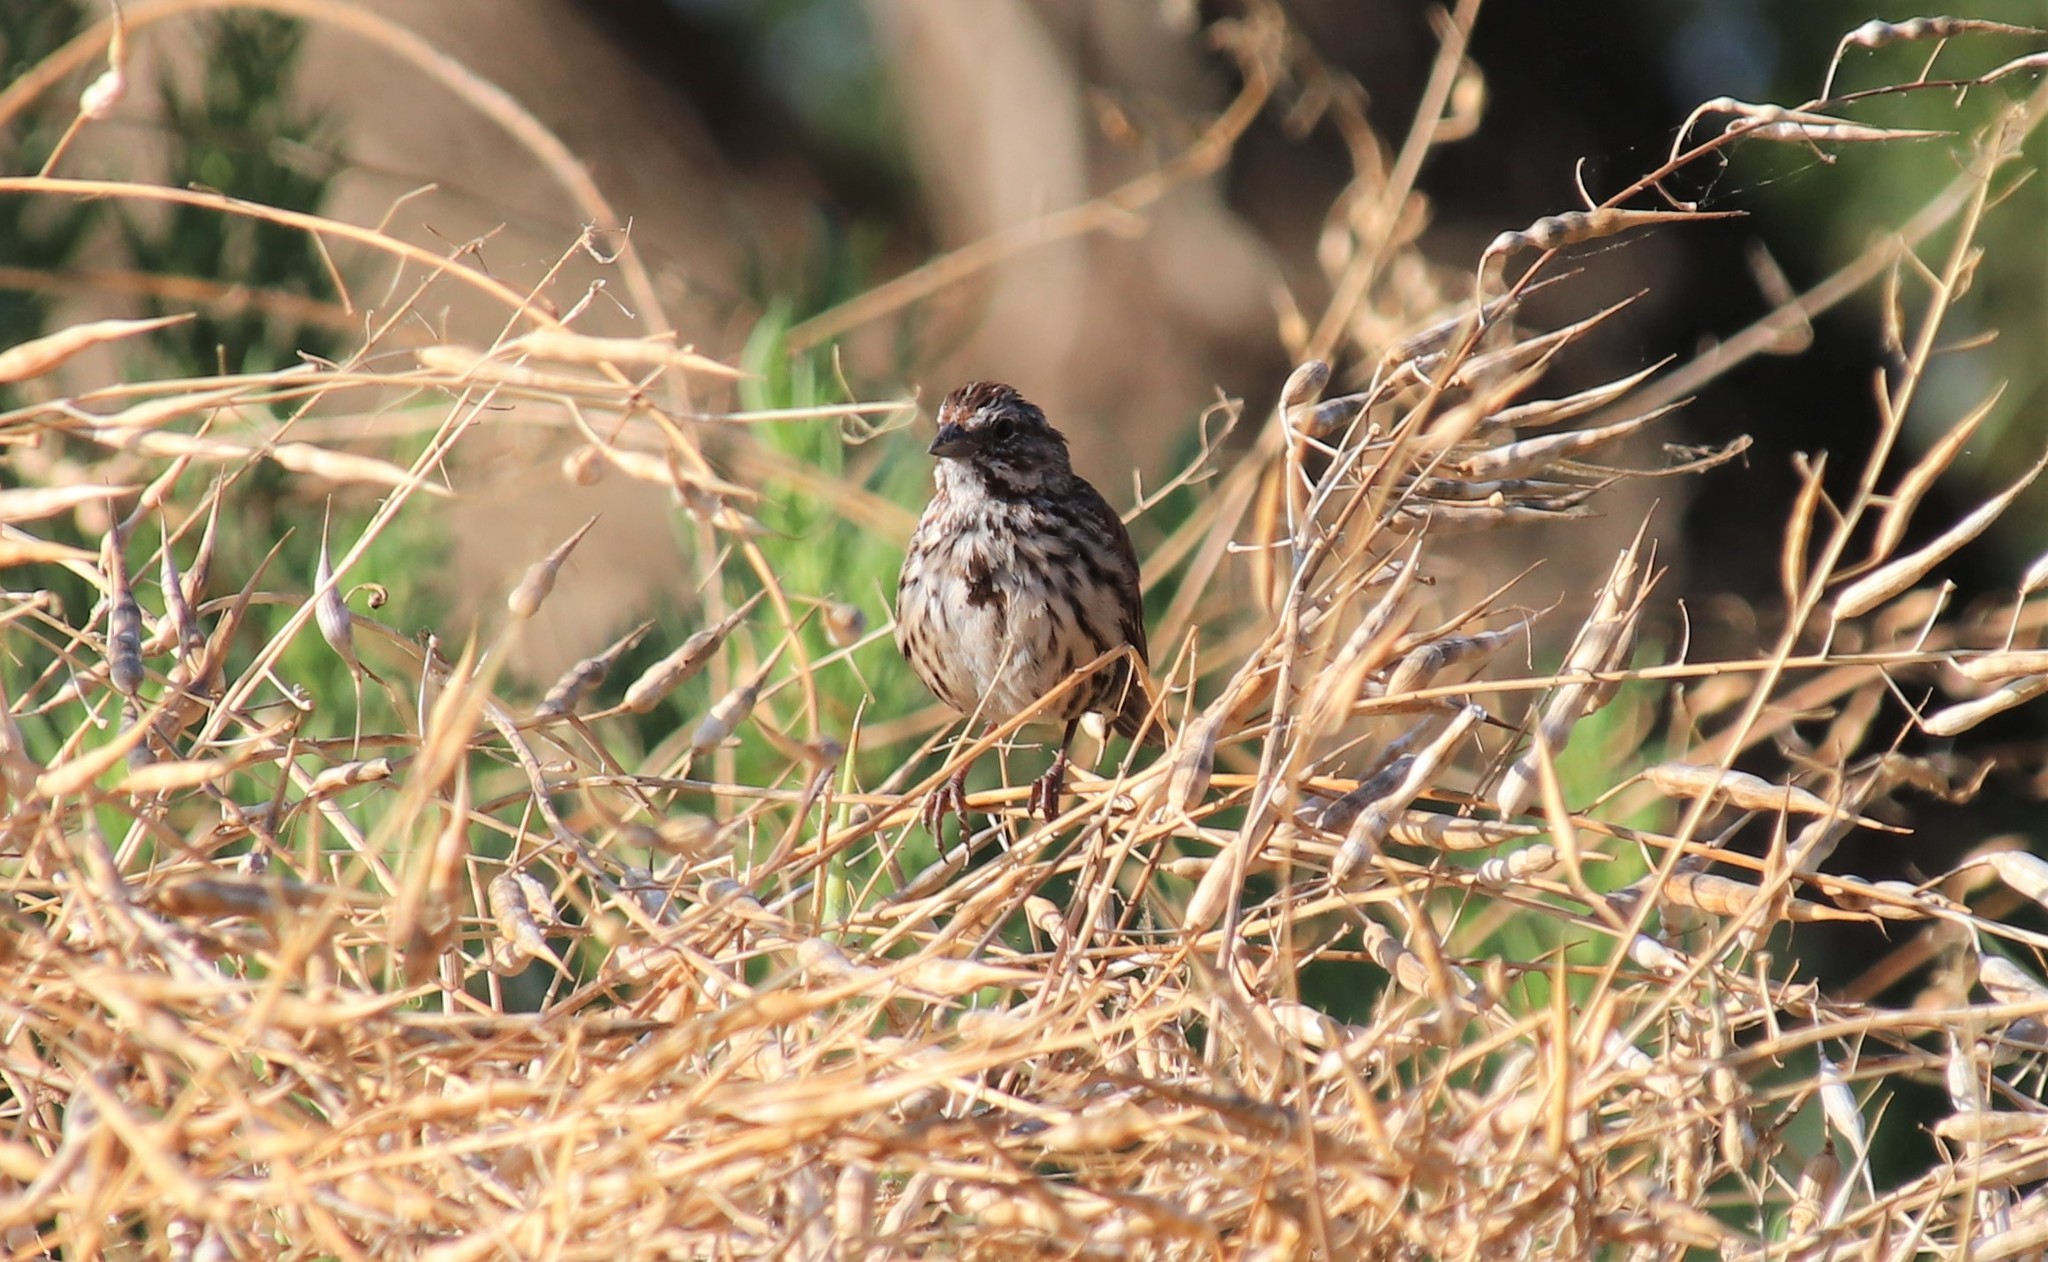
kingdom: Animalia
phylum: Chordata
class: Aves
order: Passeriformes
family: Passerellidae
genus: Melospiza
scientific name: Melospiza melodia
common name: Song sparrow
